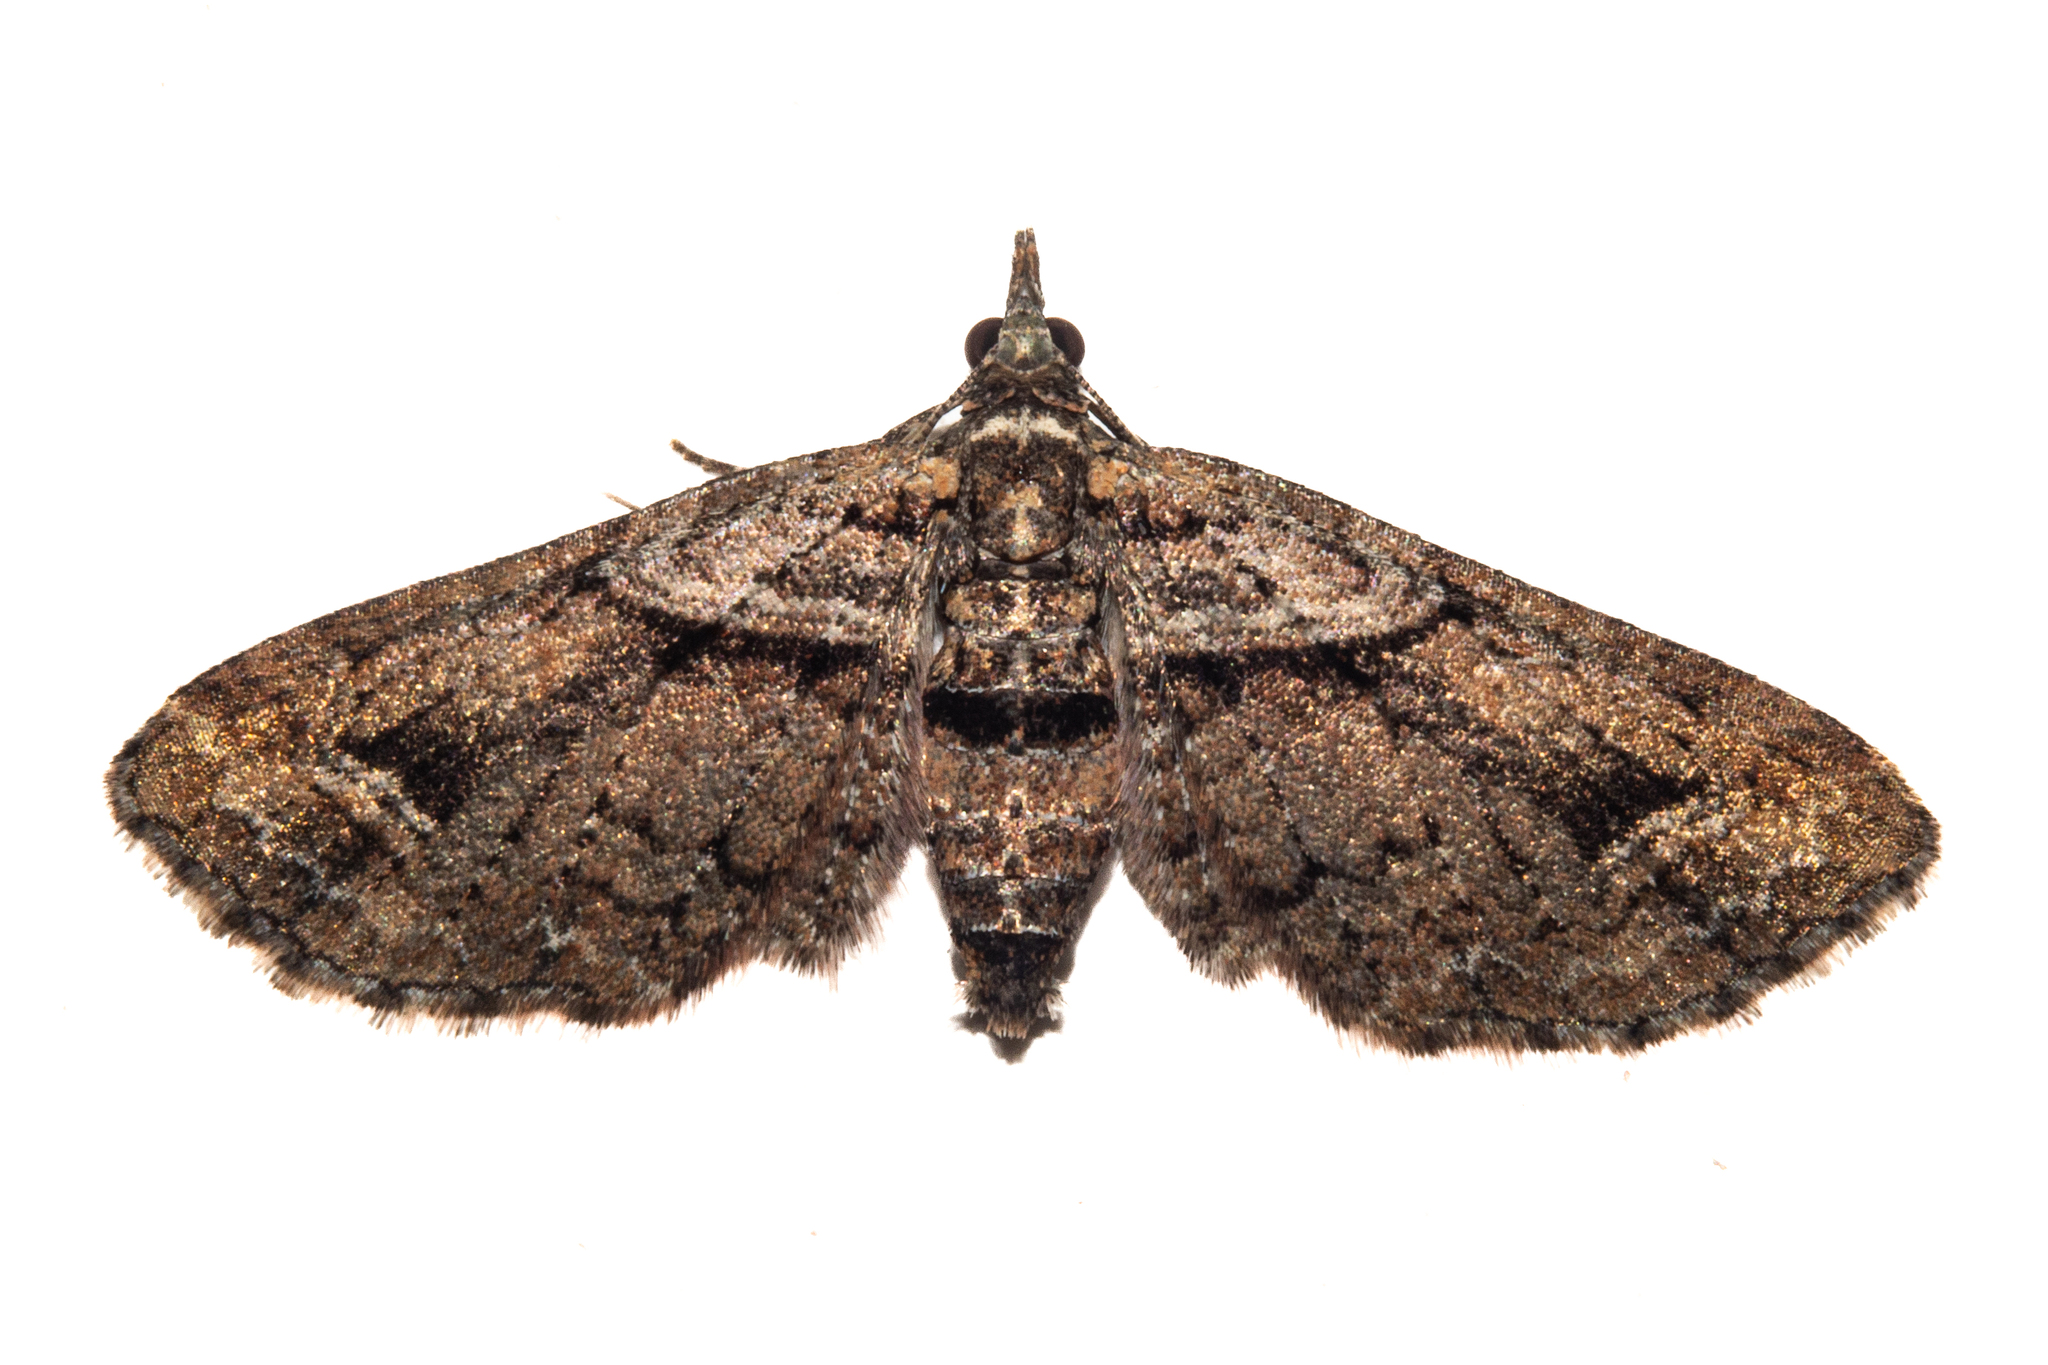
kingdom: Animalia
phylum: Arthropoda
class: Insecta
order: Lepidoptera
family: Geometridae
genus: Idaea
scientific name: Idaea mutanda
